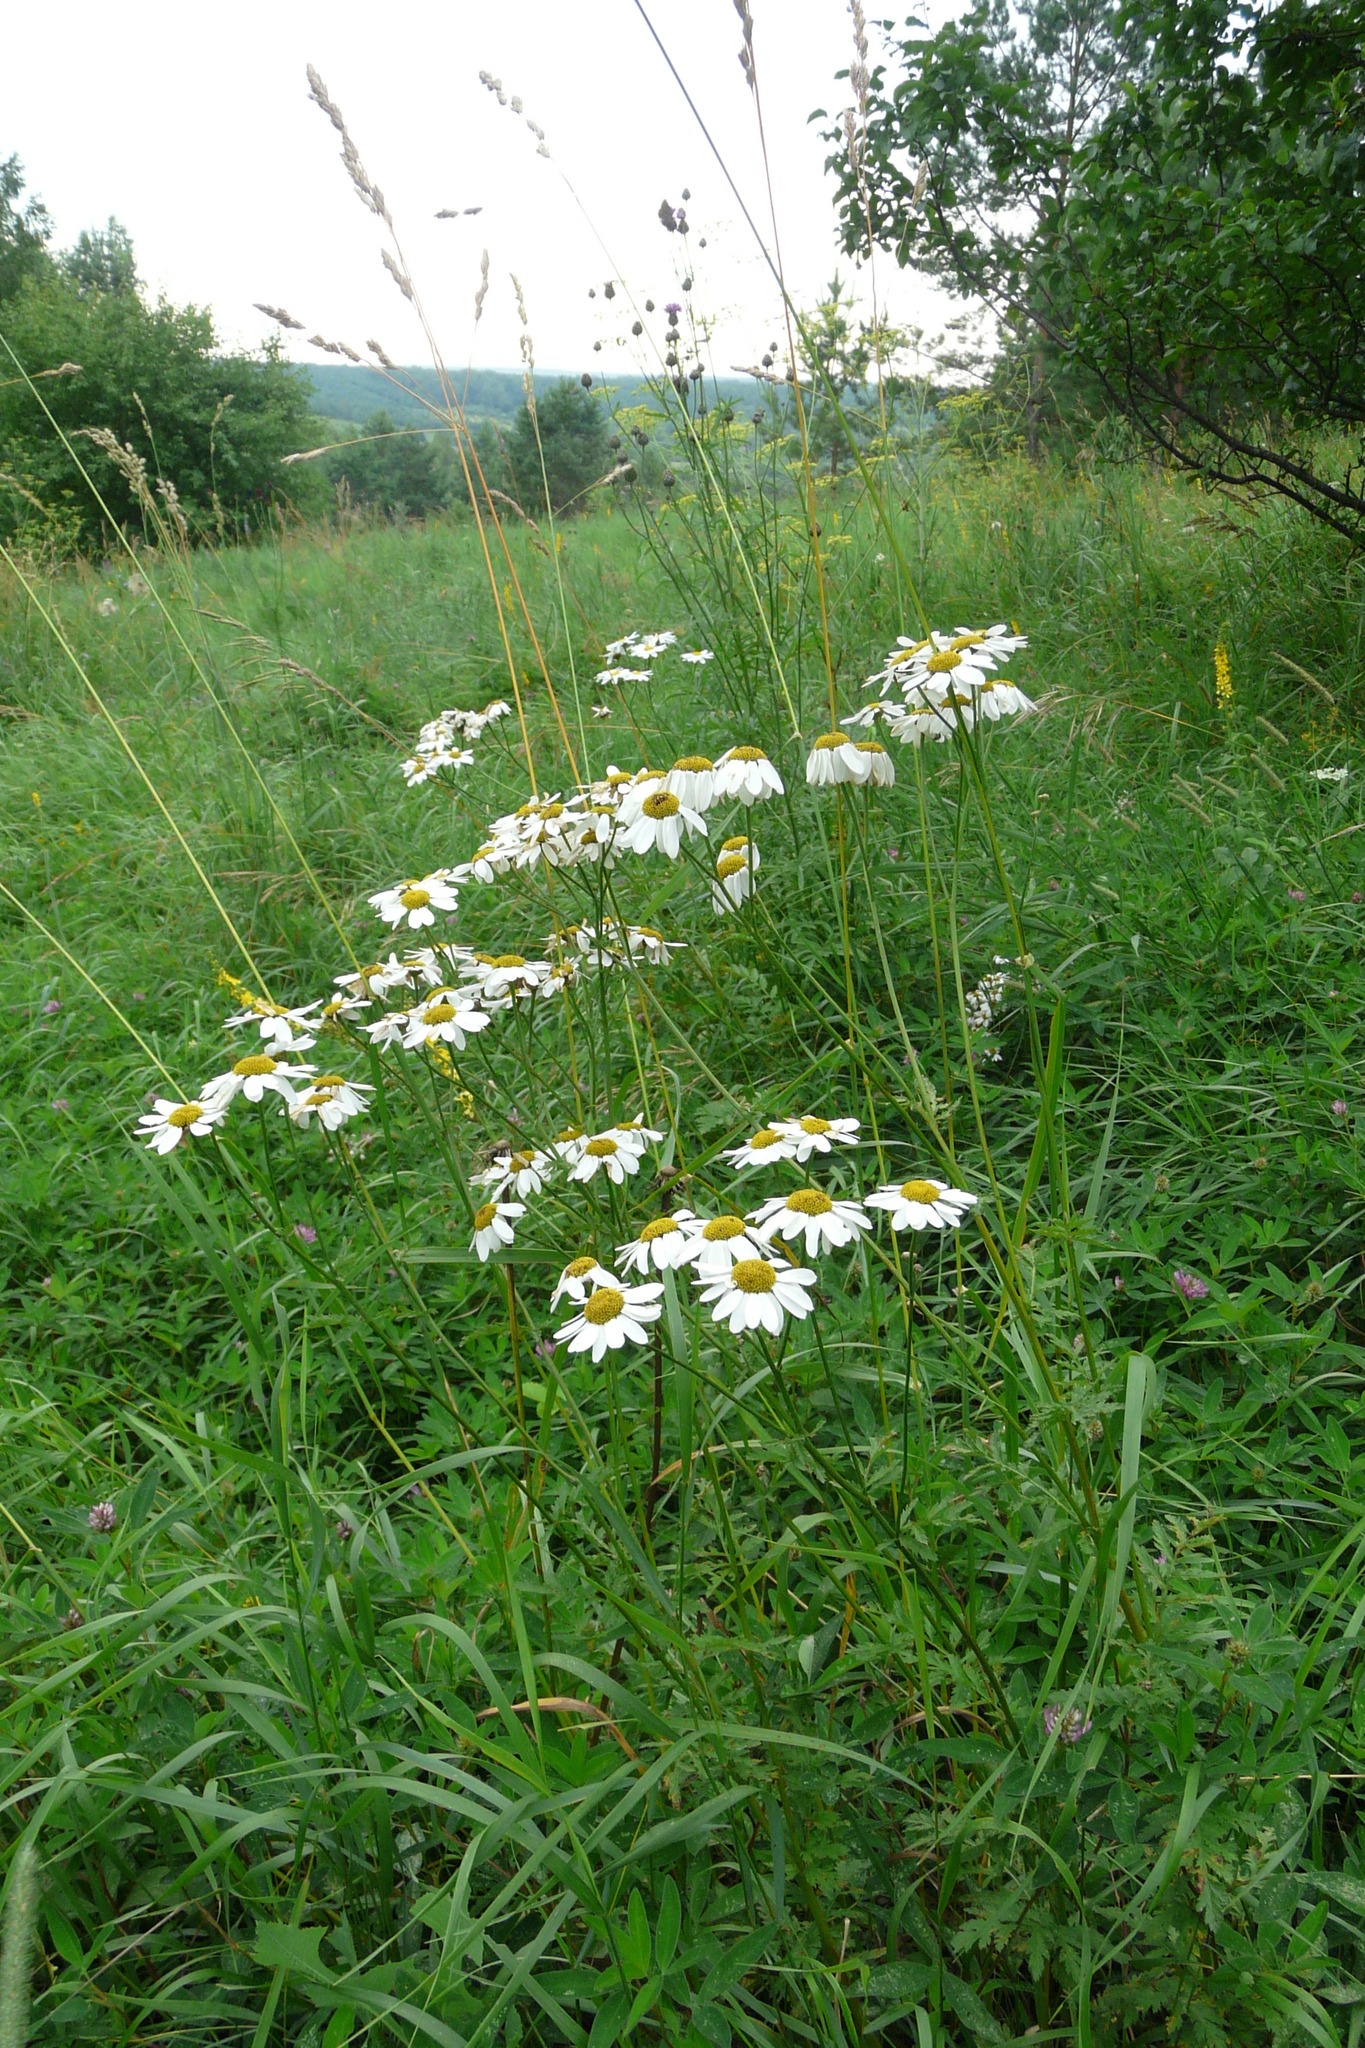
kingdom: Plantae
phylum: Tracheophyta
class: Magnoliopsida
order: Asterales
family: Asteraceae
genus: Tanacetum
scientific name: Tanacetum corymbosum
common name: Scentless feverfew
